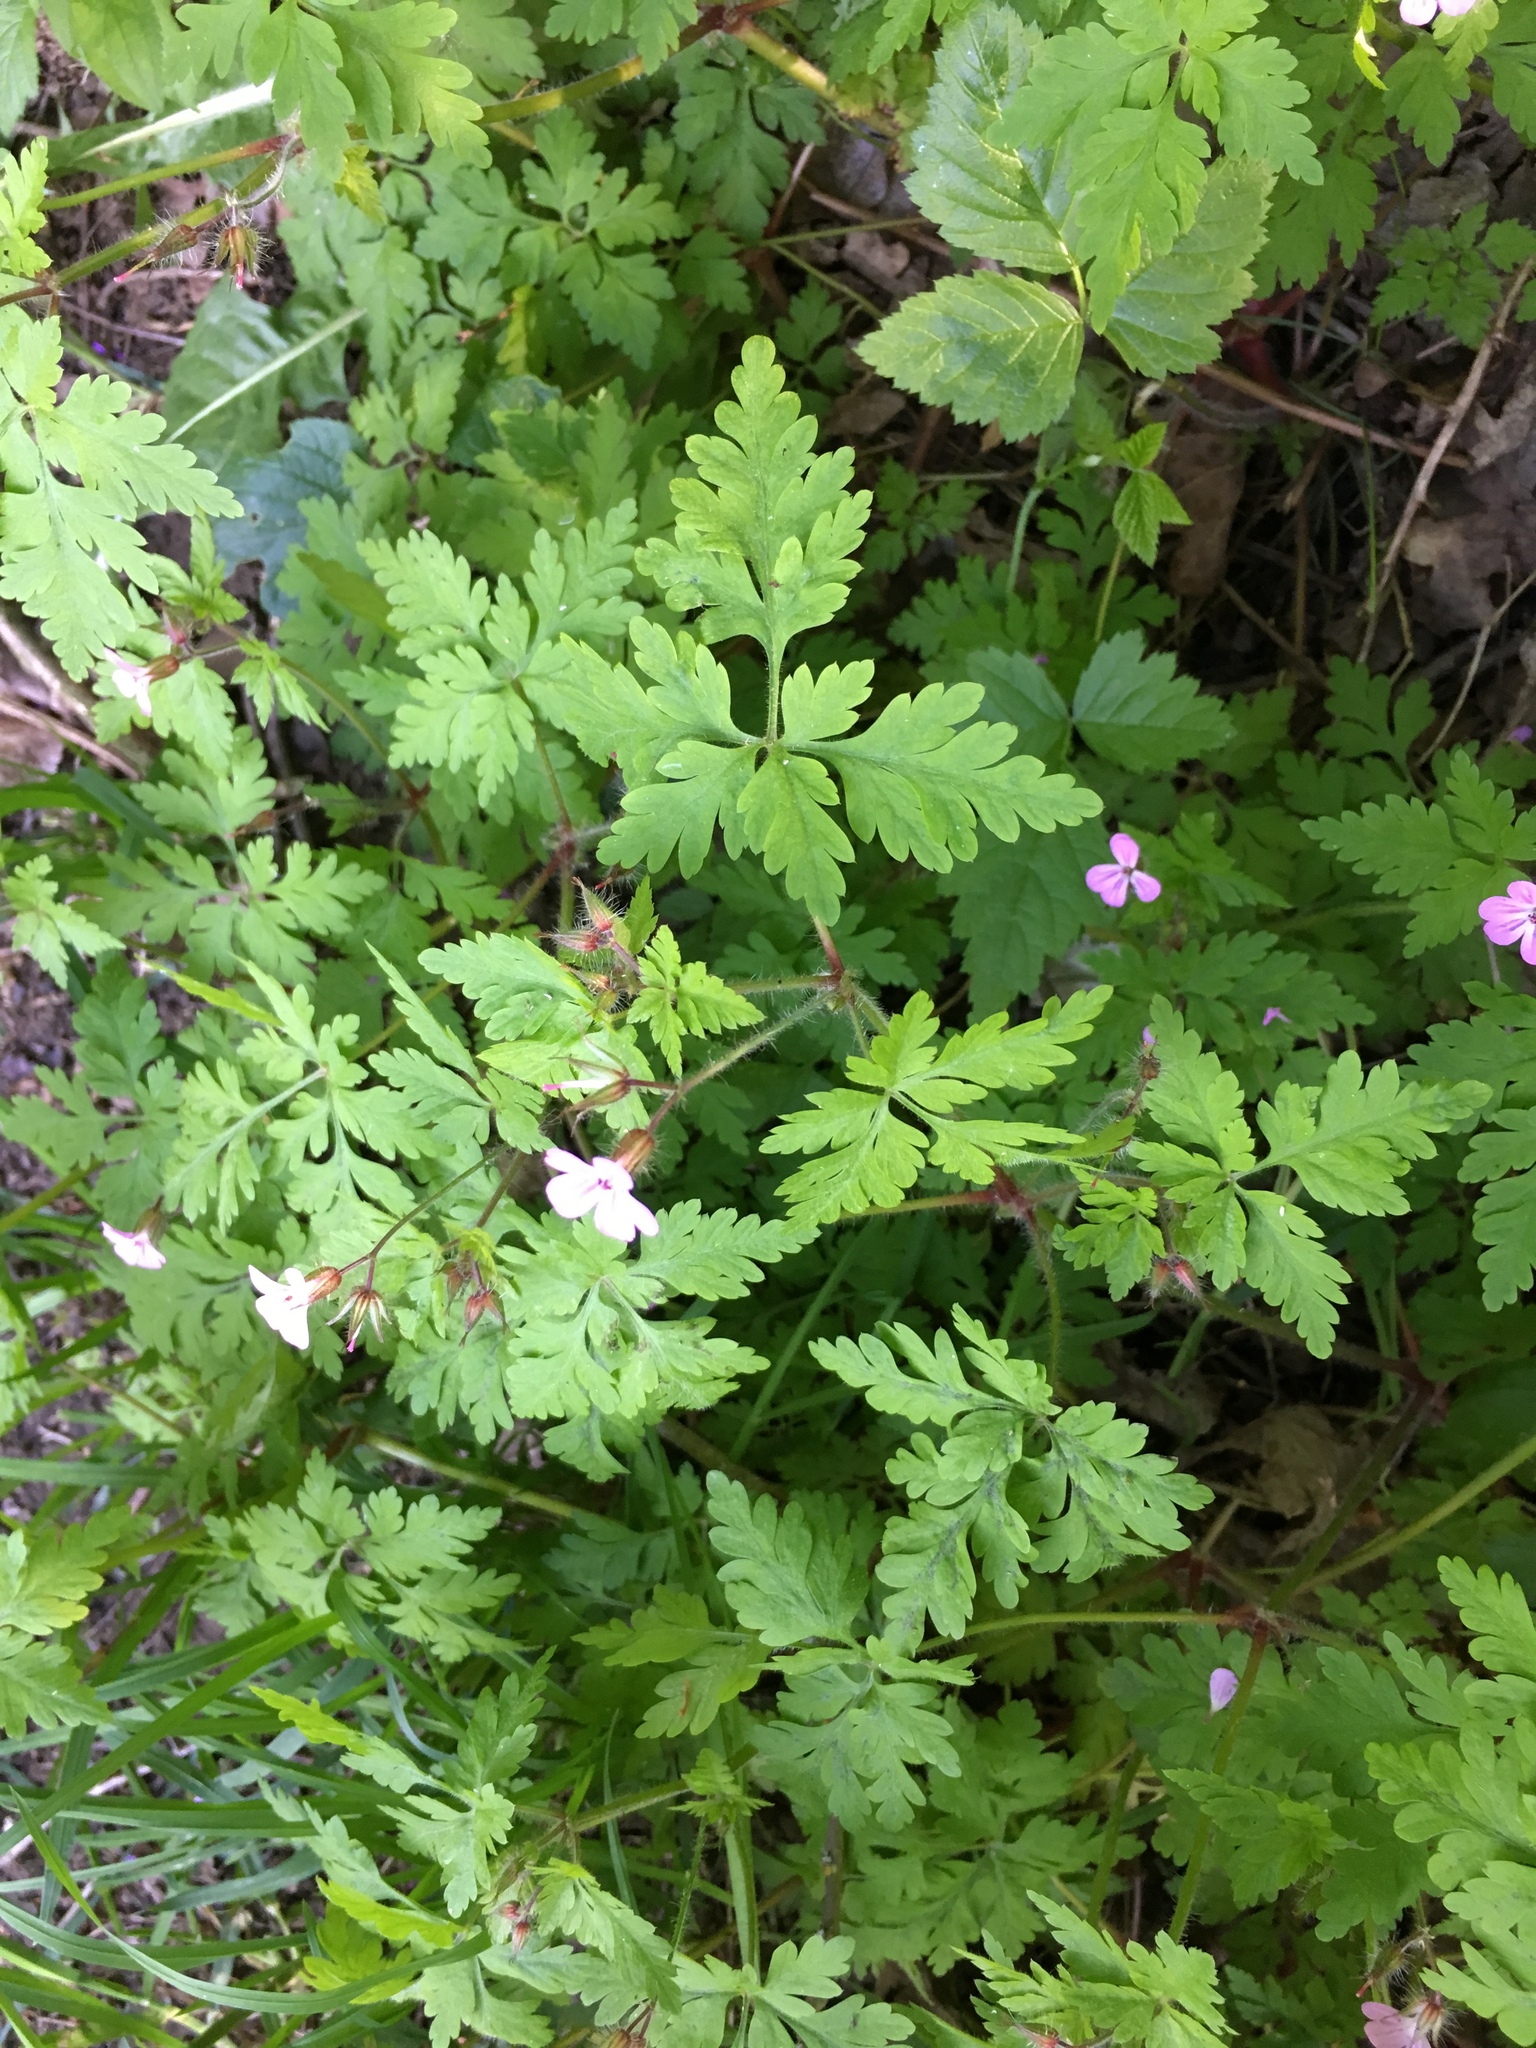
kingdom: Plantae
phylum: Tracheophyta
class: Magnoliopsida
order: Geraniales
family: Geraniaceae
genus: Geranium
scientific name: Geranium robertianum
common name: Herb-robert
